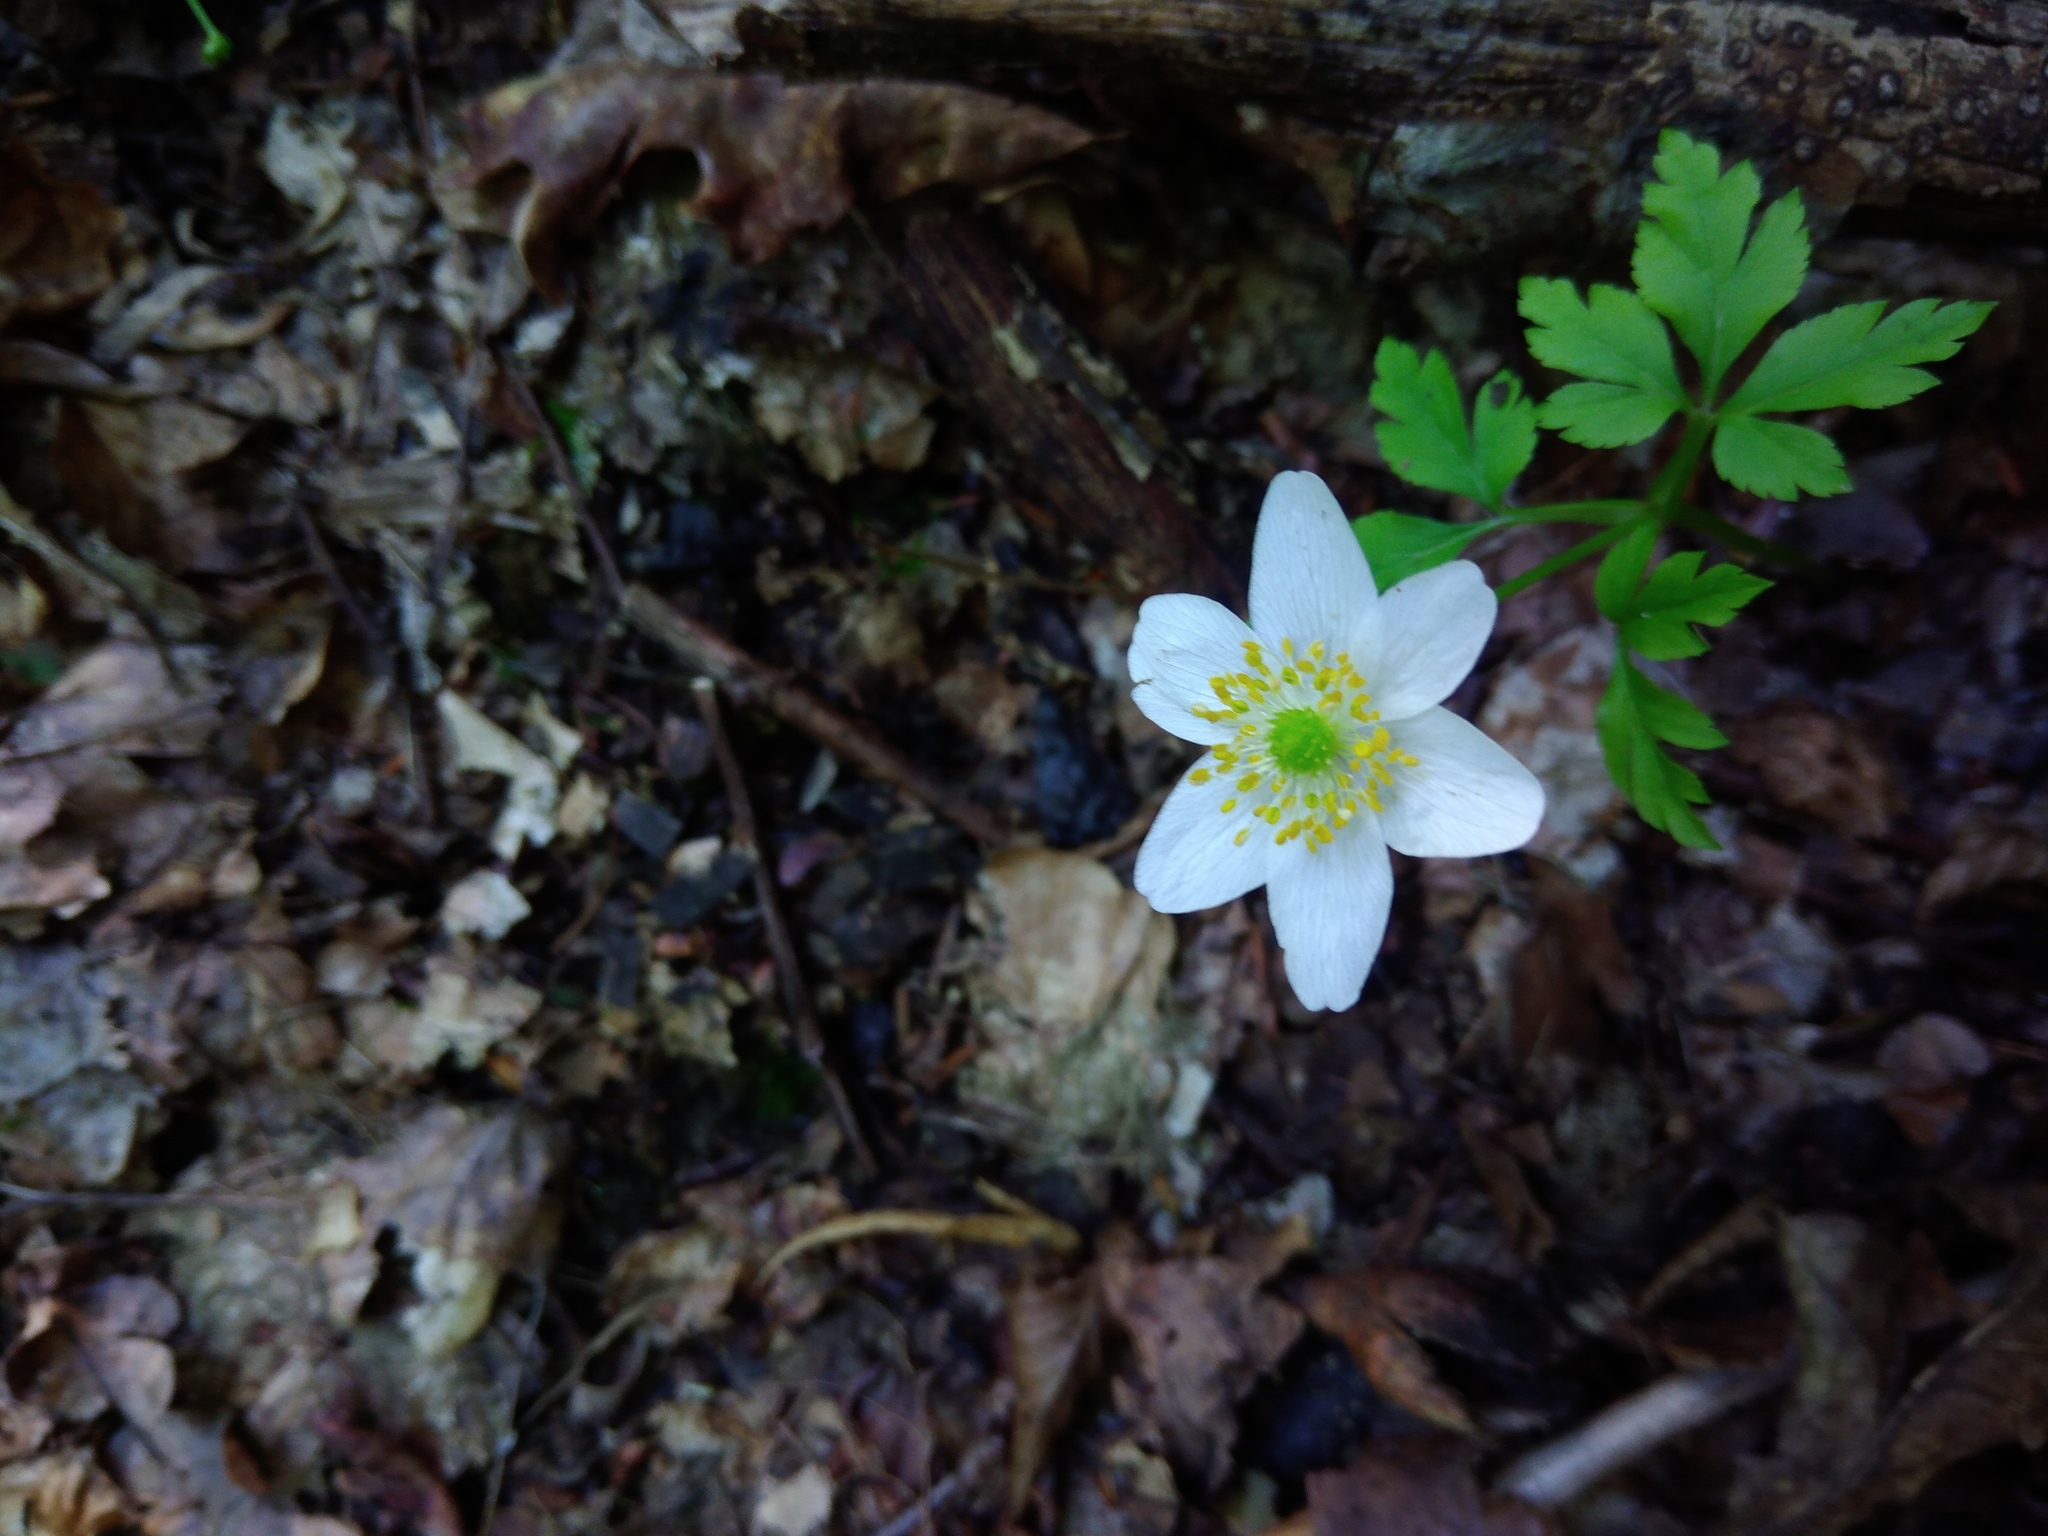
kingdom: Plantae
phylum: Tracheophyta
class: Magnoliopsida
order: Ranunculales
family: Ranunculaceae
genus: Anemone
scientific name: Anemone nemorosa
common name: Wood anemone
